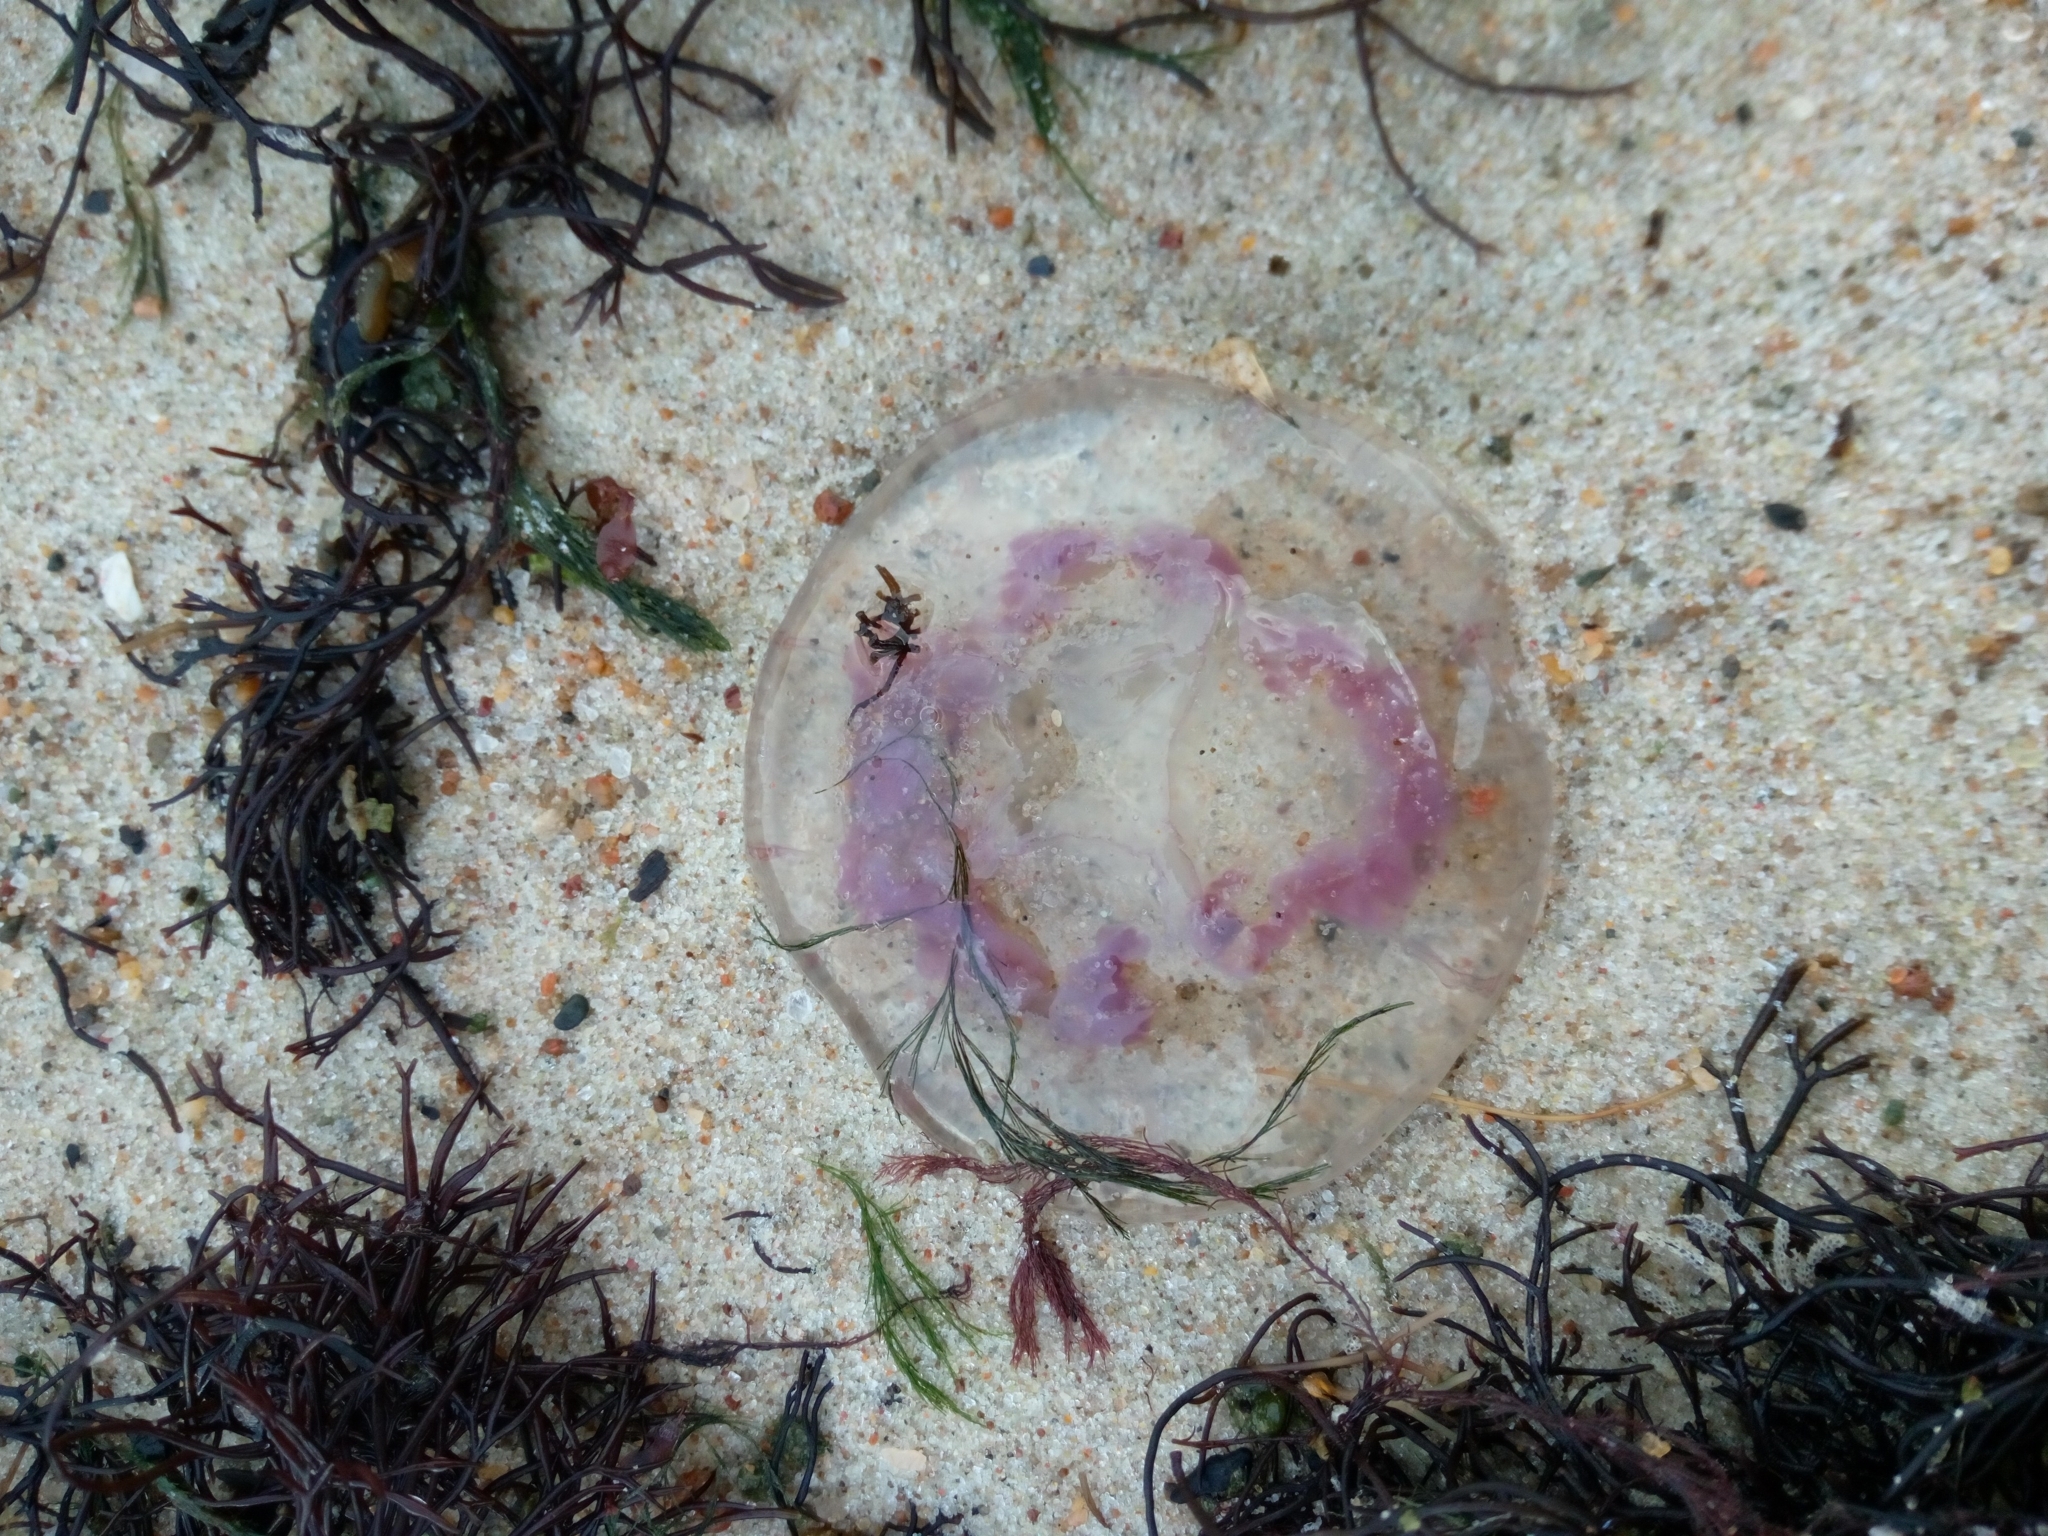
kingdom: Animalia
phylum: Cnidaria
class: Scyphozoa
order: Semaeostomeae
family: Ulmaridae
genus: Aurelia
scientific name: Aurelia aurita
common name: Moon jellyfish
